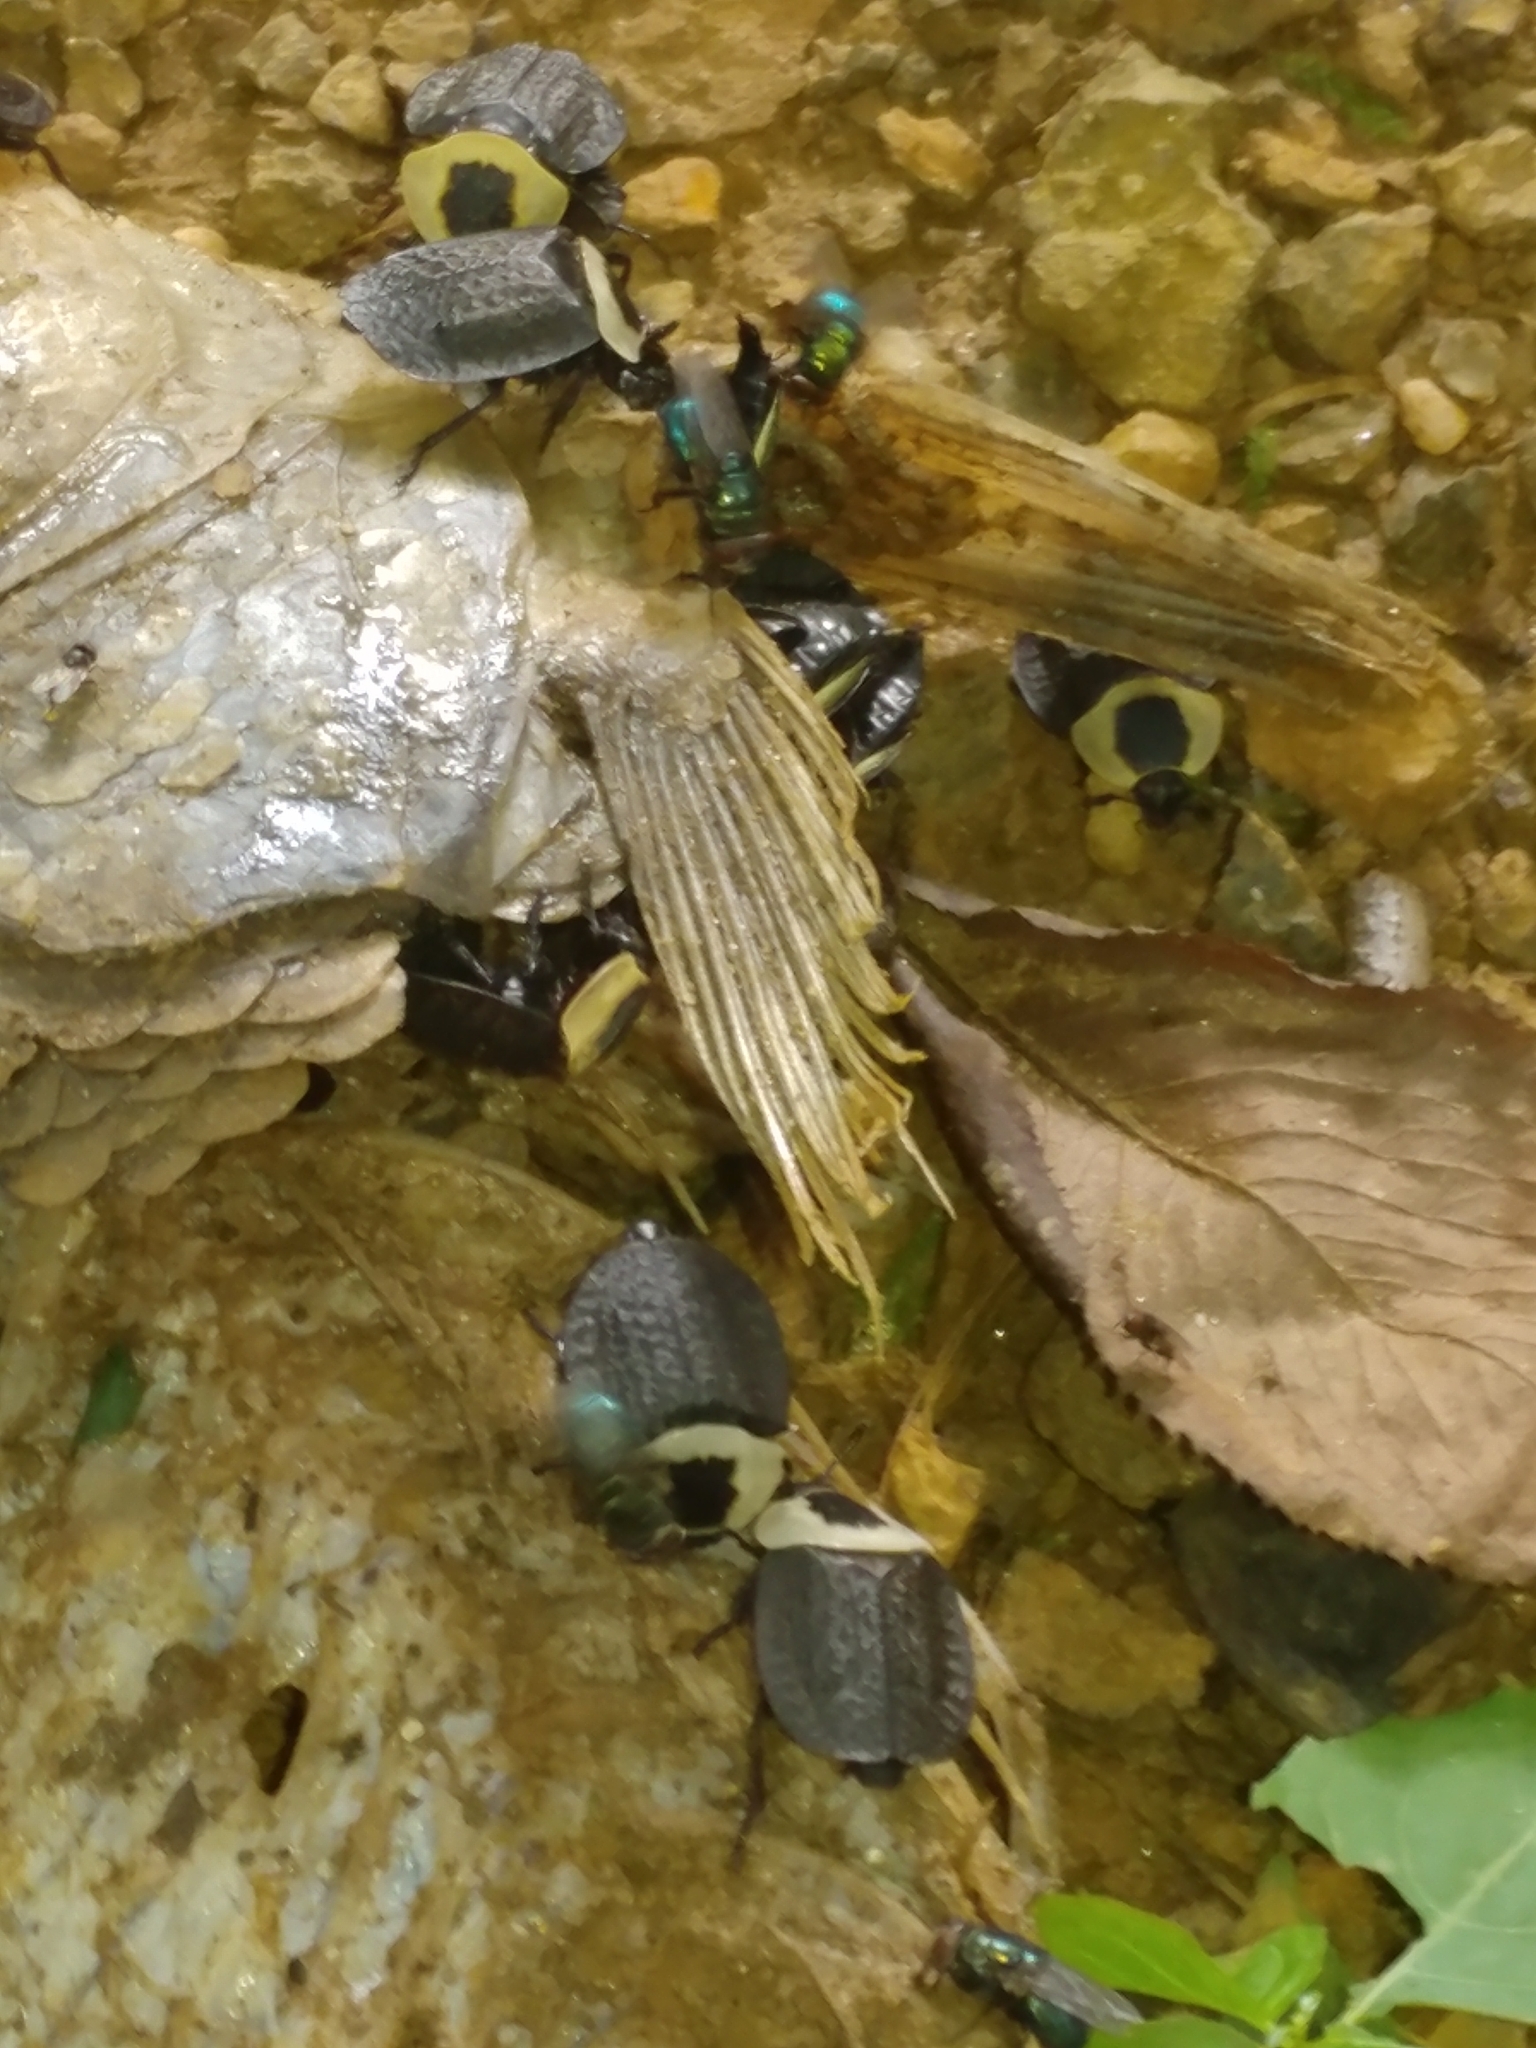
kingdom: Animalia
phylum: Arthropoda
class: Insecta
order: Coleoptera
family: Staphylinidae
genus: Necrophila
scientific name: Necrophila americana
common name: American carrion beetle
